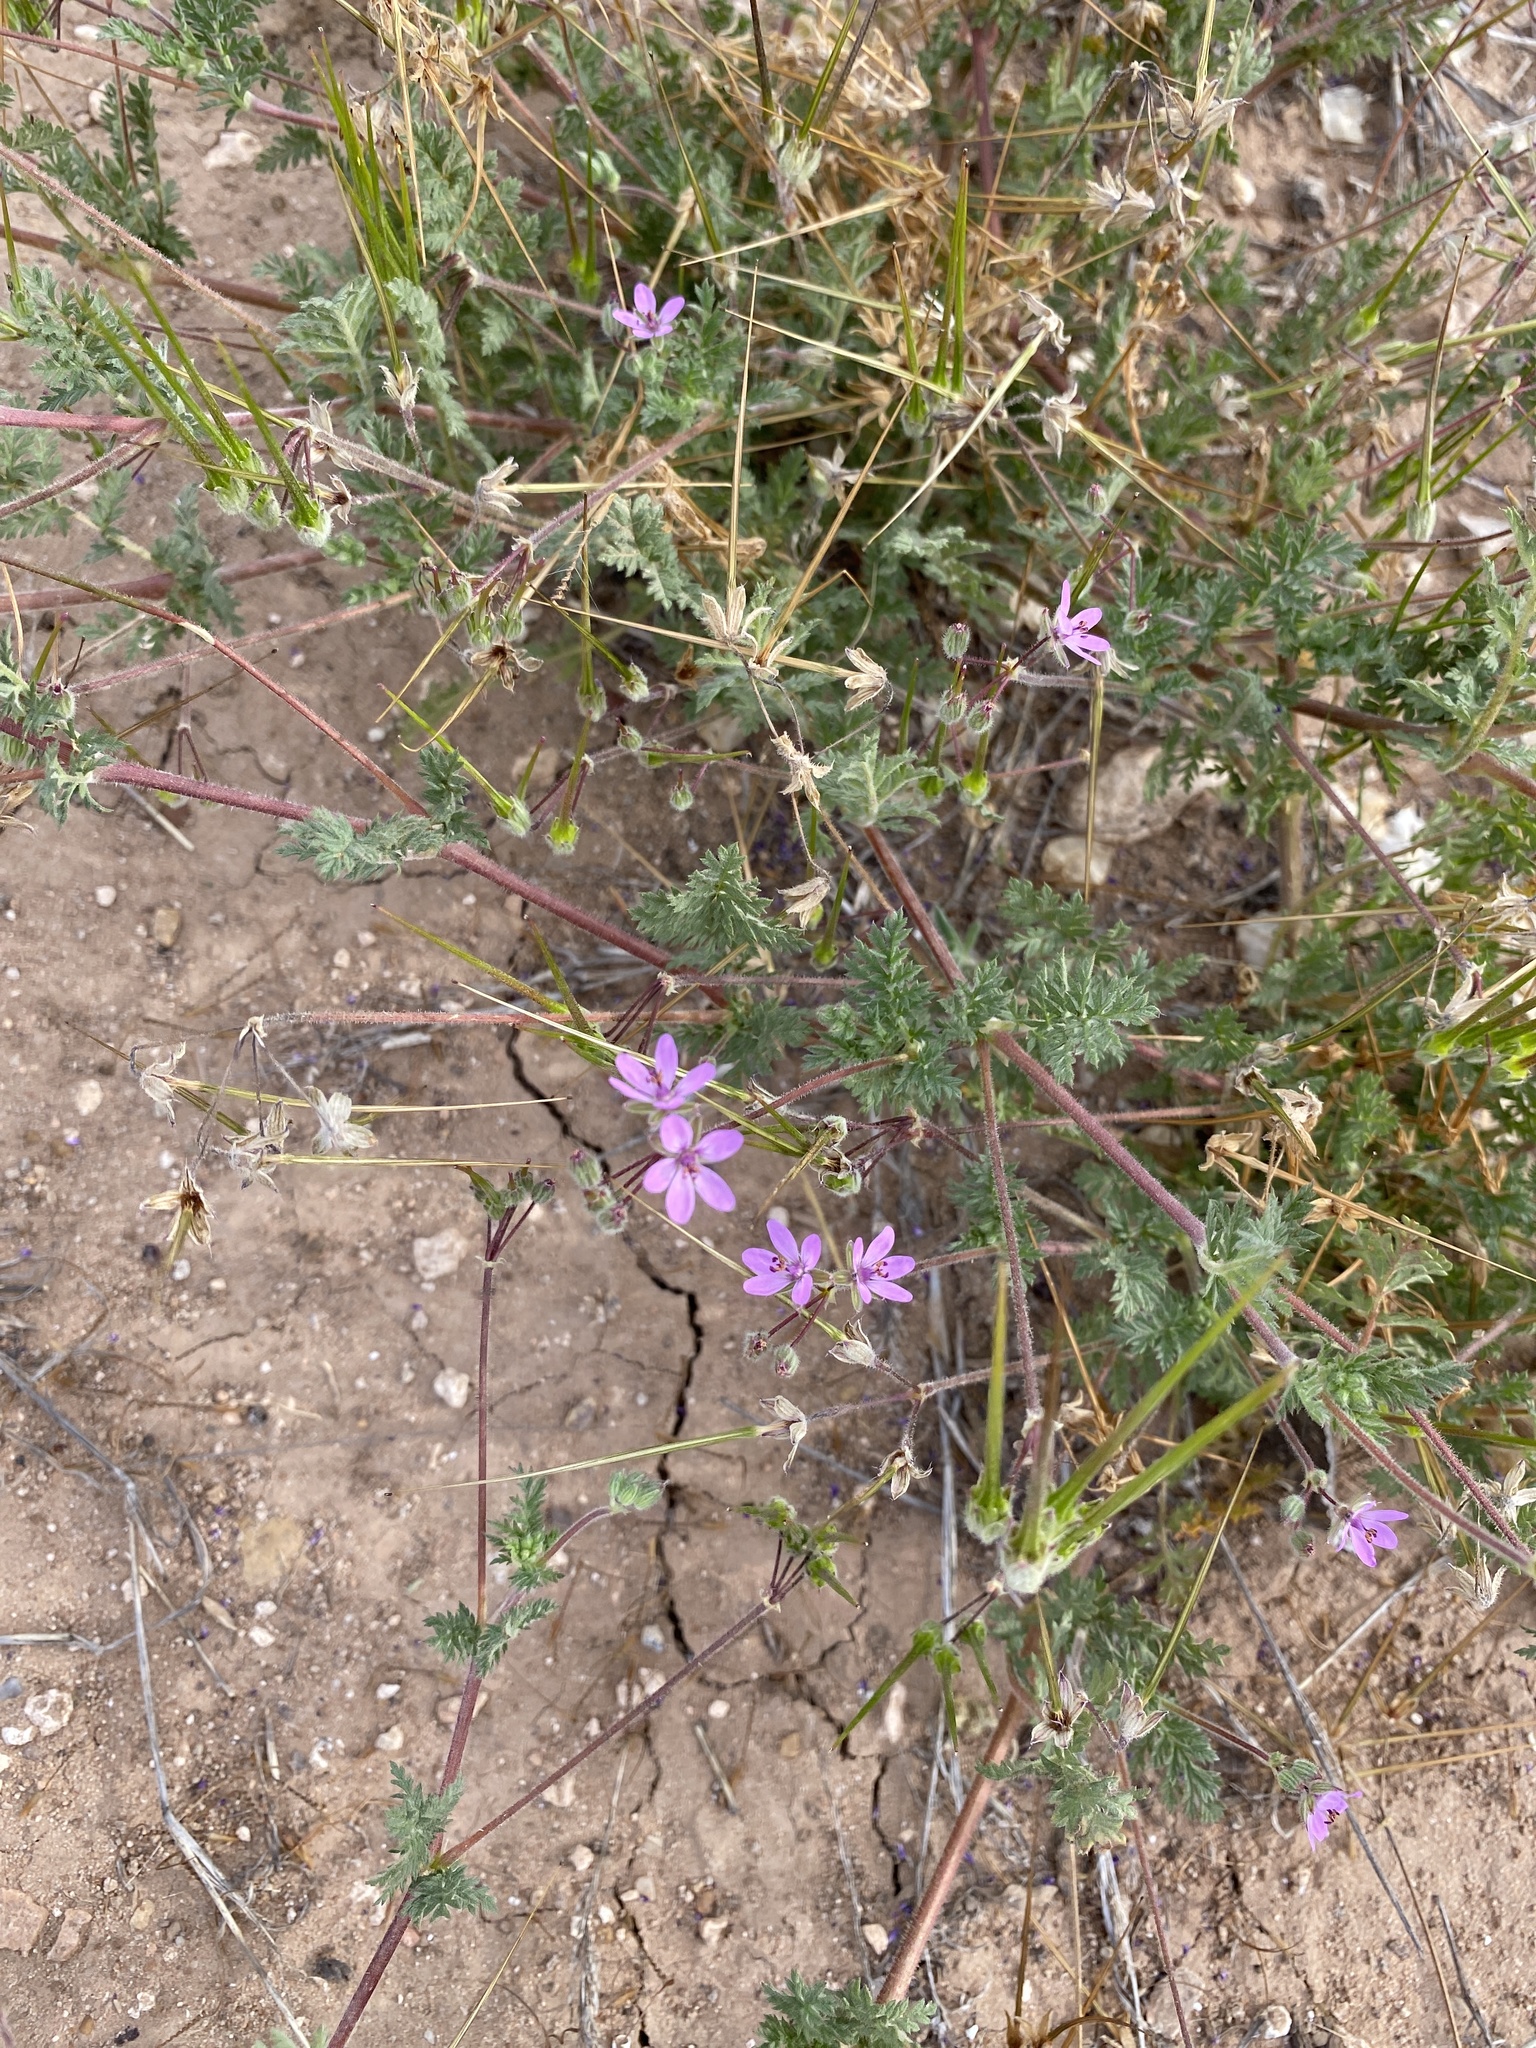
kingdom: Plantae
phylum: Tracheophyta
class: Magnoliopsida
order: Geraniales
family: Geraniaceae
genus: Erodium
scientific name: Erodium cicutarium
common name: Common stork's-bill
